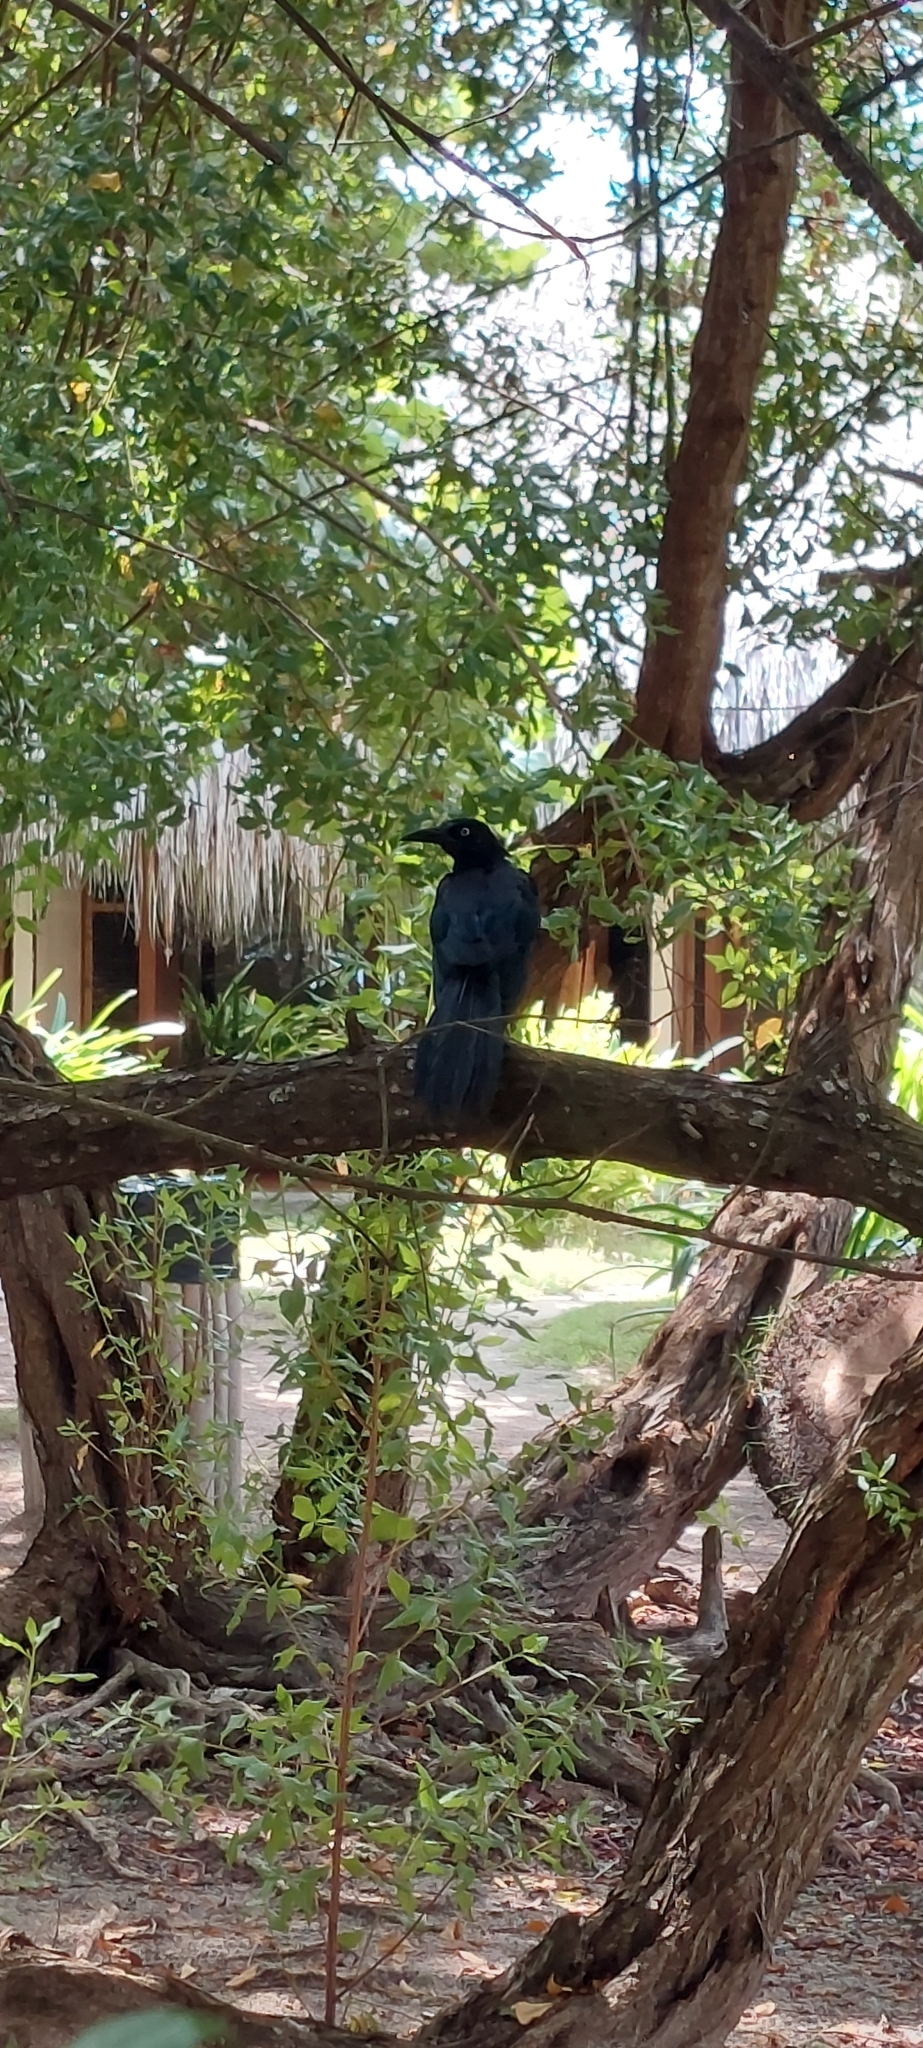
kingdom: Animalia
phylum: Chordata
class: Aves
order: Passeriformes
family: Icteridae
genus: Quiscalus
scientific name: Quiscalus mexicanus
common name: Great-tailed grackle
